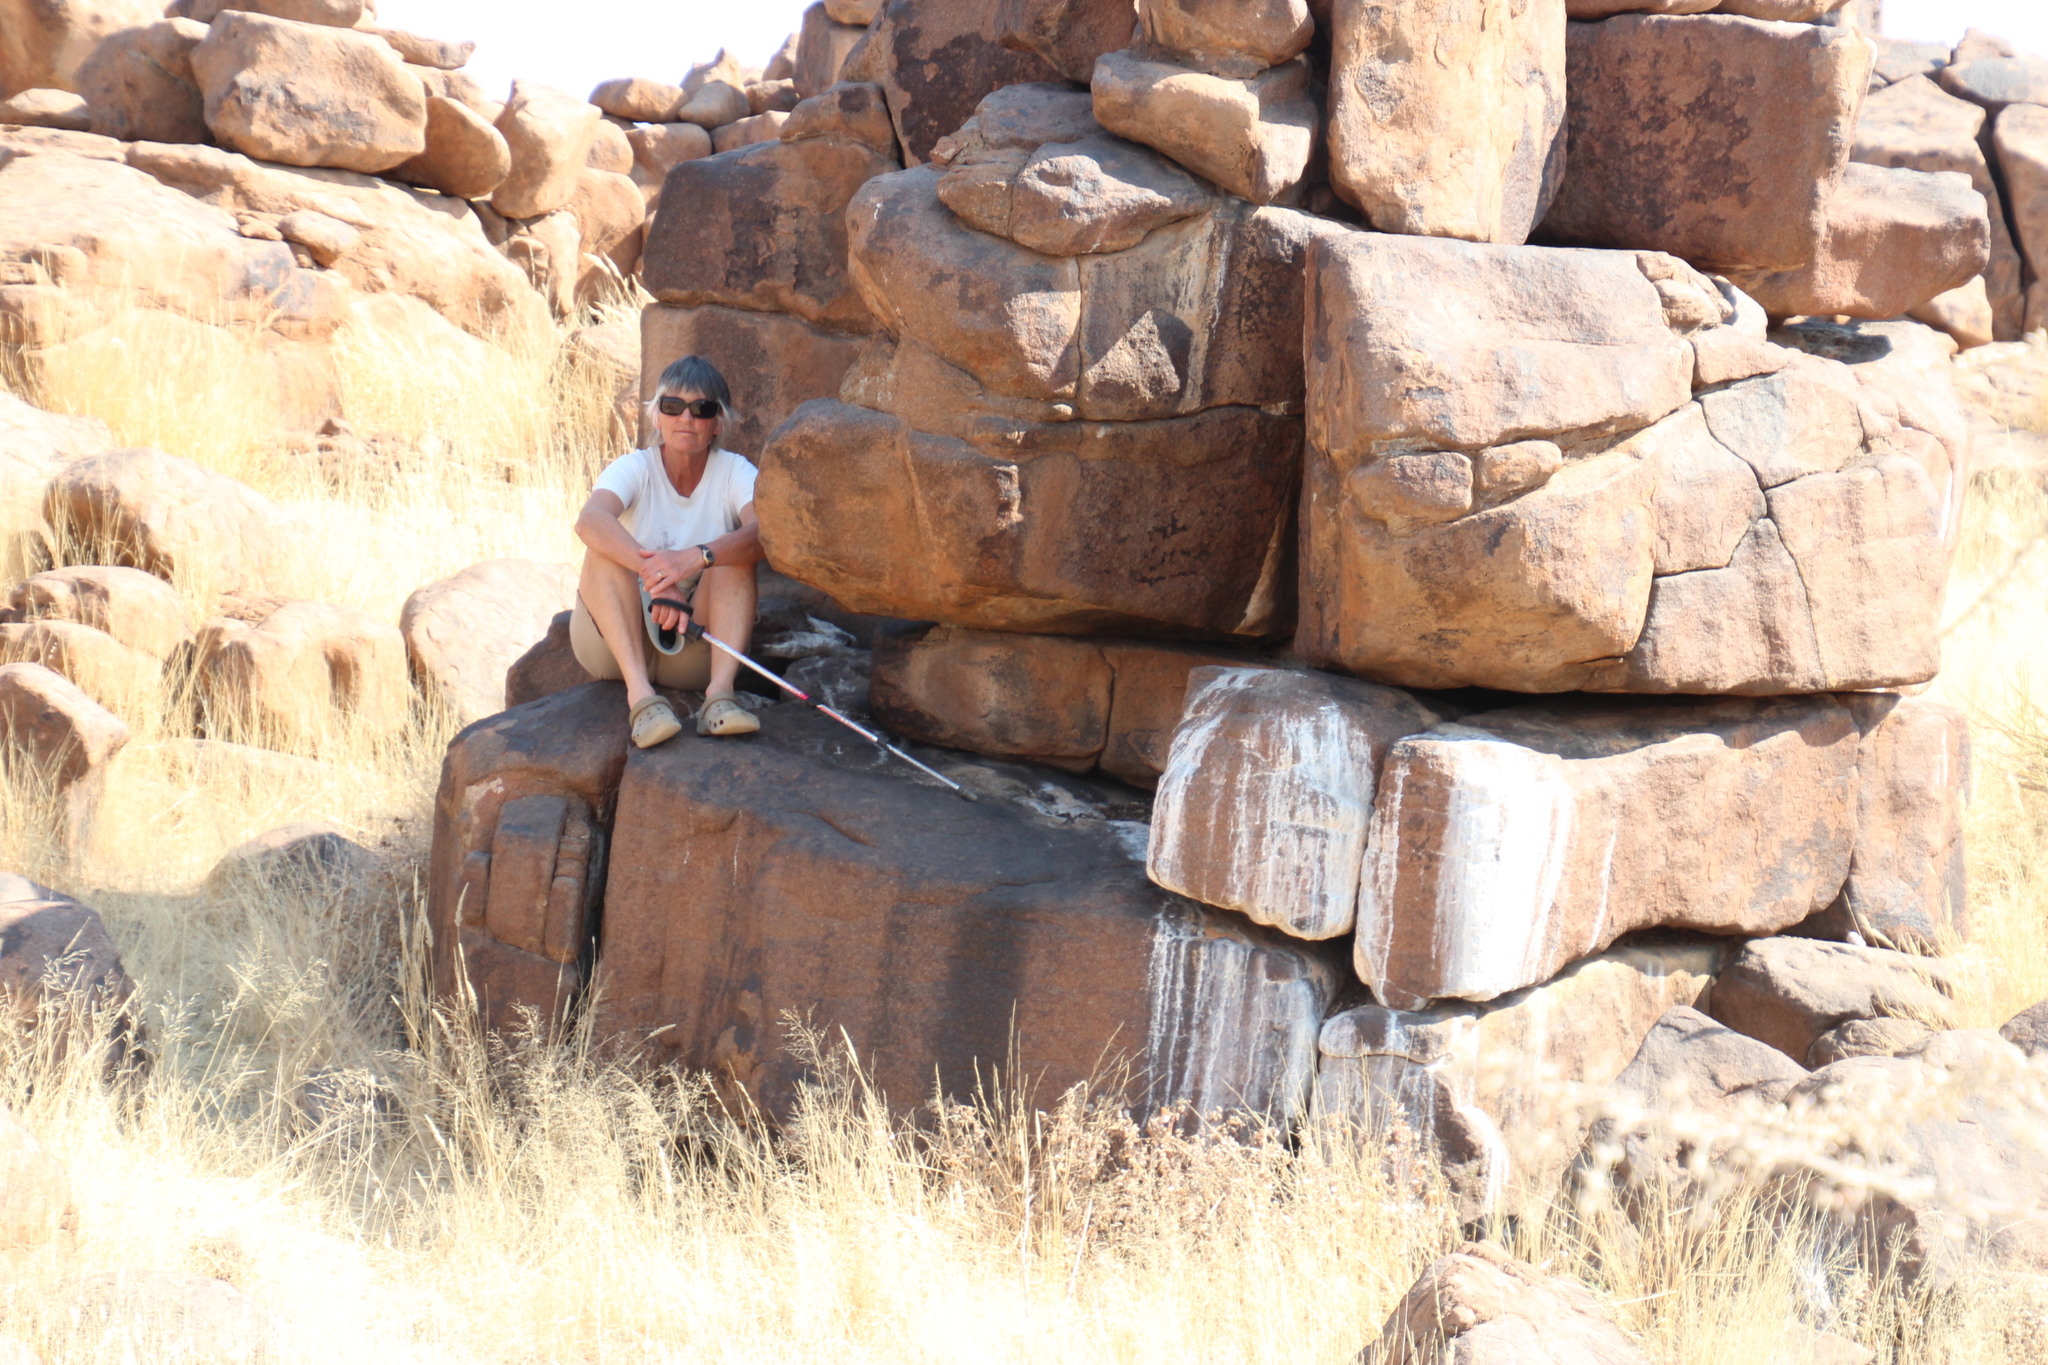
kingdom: Animalia
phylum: Chordata
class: Mammalia
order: Hyracoidea
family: Procaviidae
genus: Procavia
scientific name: Procavia capensis
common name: Rock hyrax
